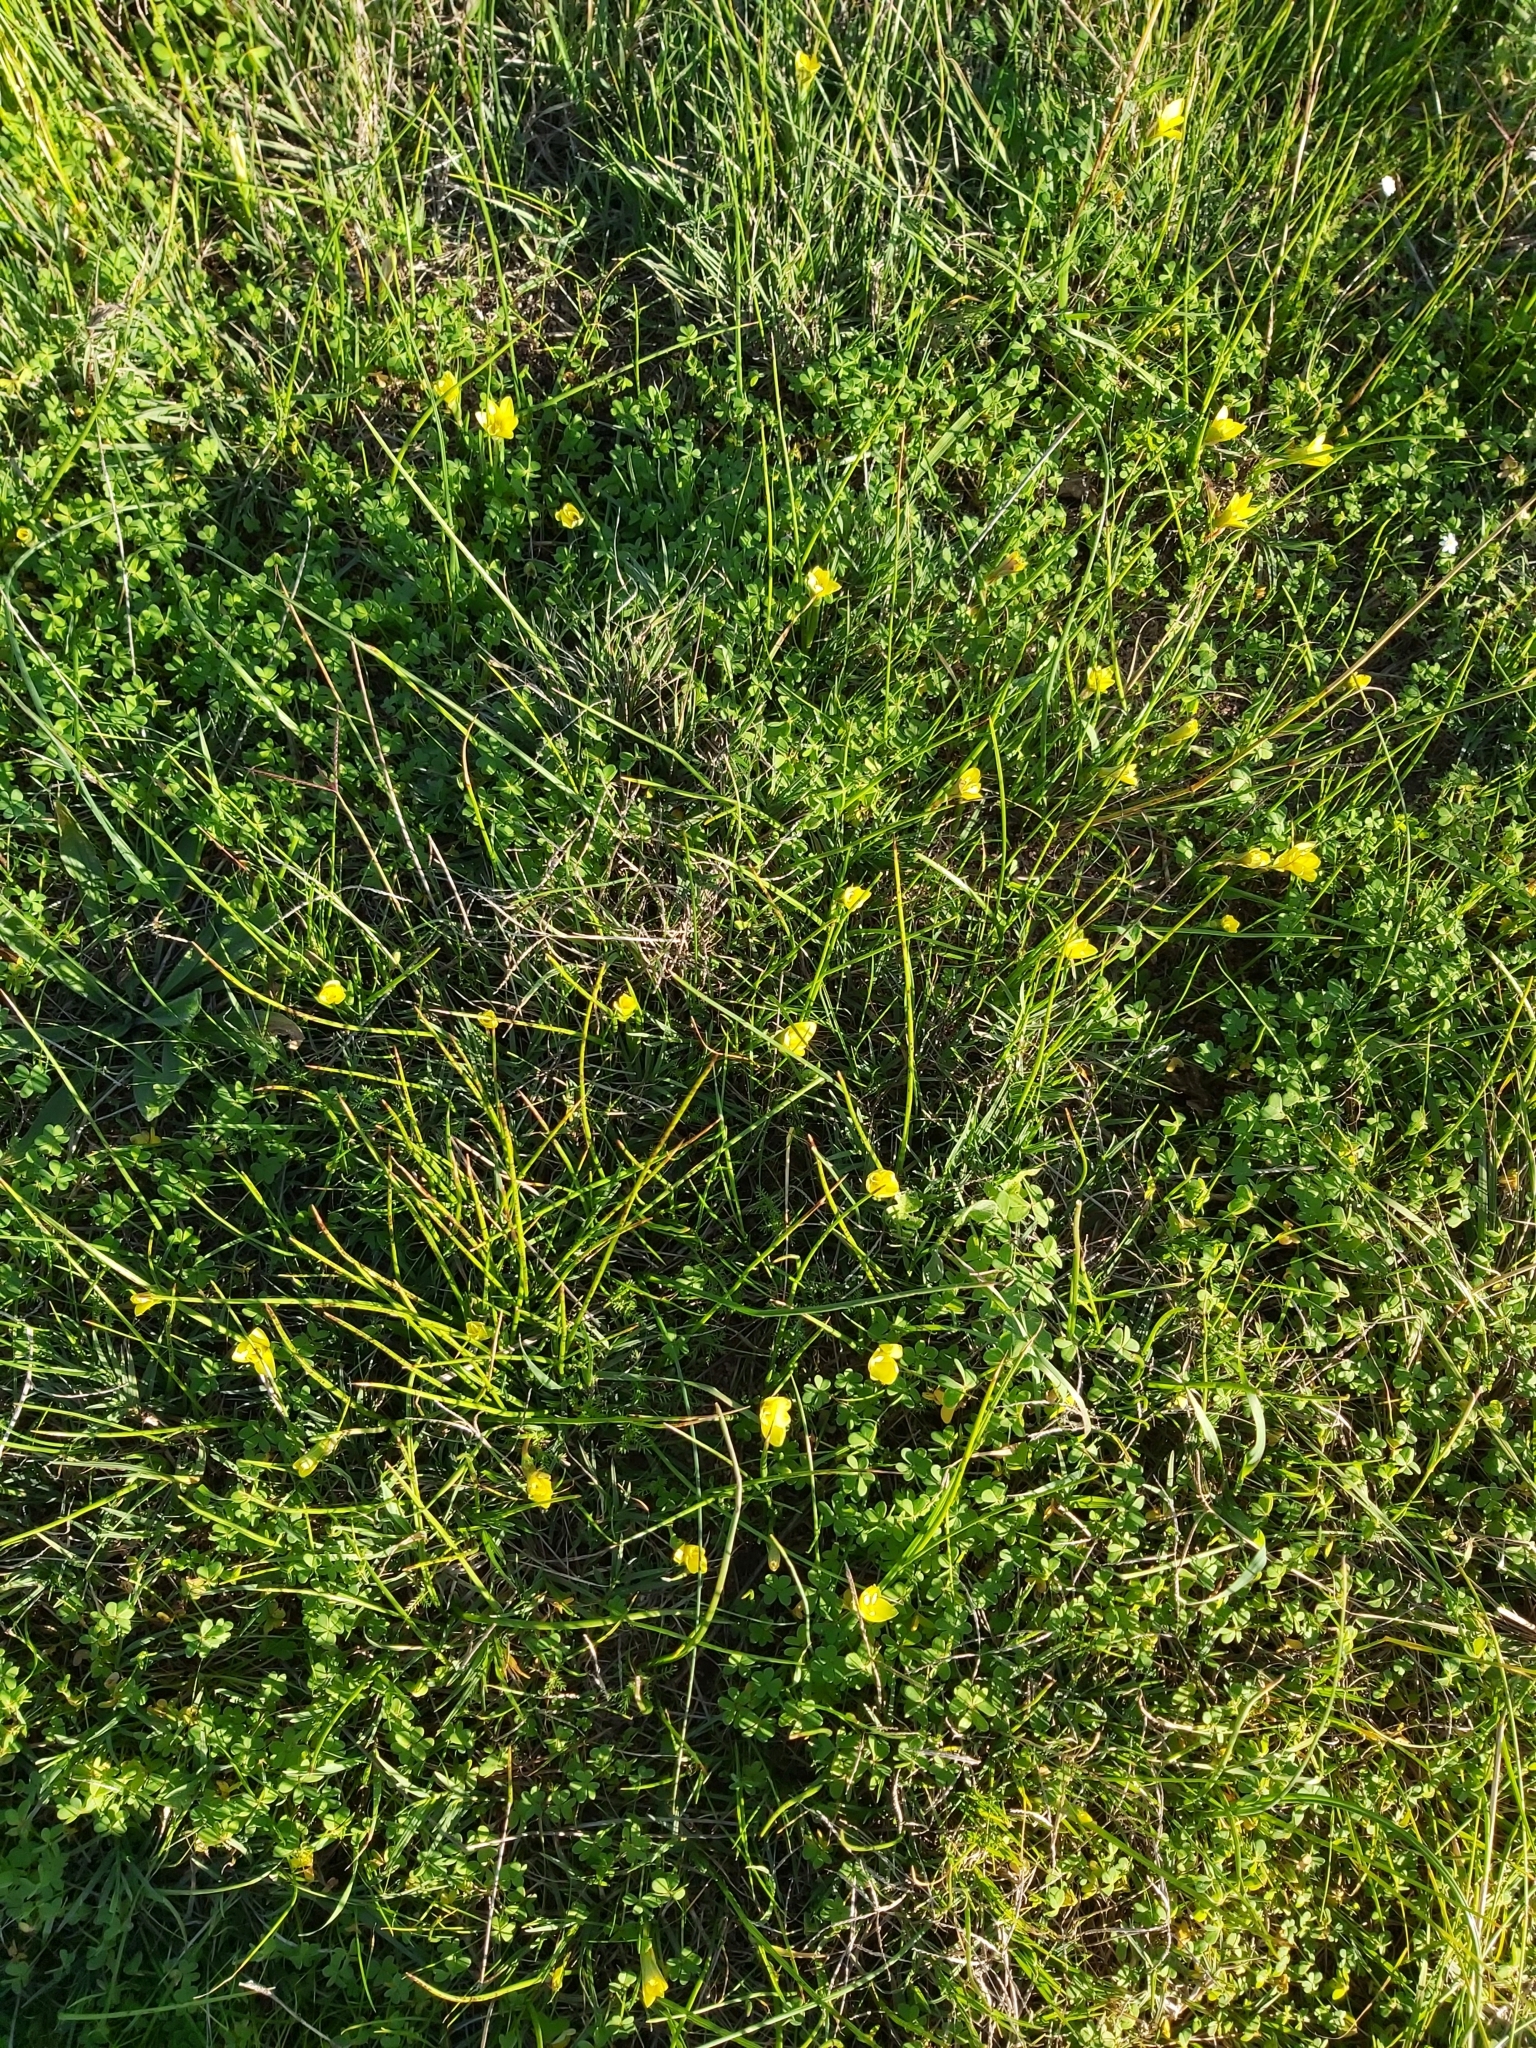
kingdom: Plantae
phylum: Tracheophyta
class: Liliopsida
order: Asparagales
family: Iridaceae
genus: Romulea
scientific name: Romulea flava
